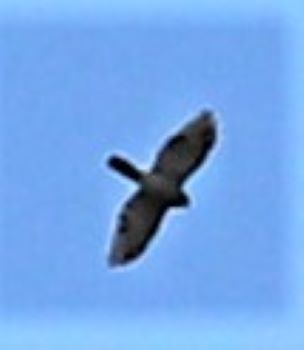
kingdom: Animalia
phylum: Chordata
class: Aves
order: Accipitriformes
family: Accipitridae
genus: Accipiter
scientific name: Accipiter tachiro
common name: African goshawk
